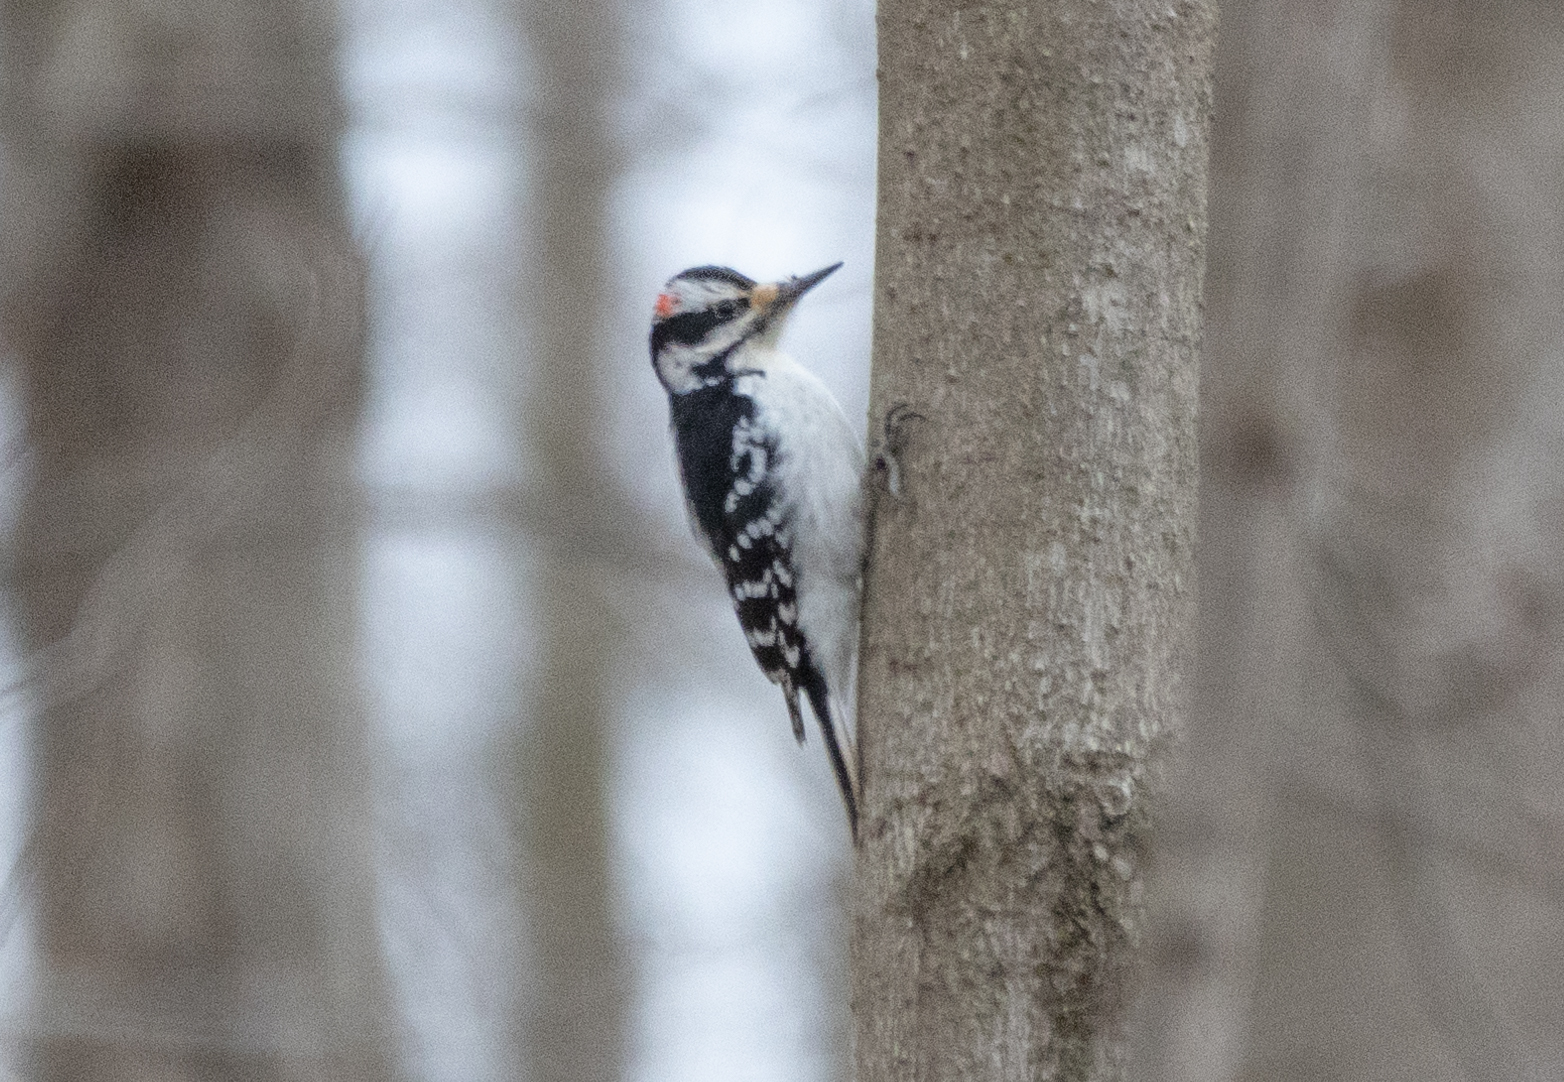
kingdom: Animalia
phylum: Chordata
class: Aves
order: Piciformes
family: Picidae
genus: Leuconotopicus
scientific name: Leuconotopicus villosus
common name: Hairy woodpecker
